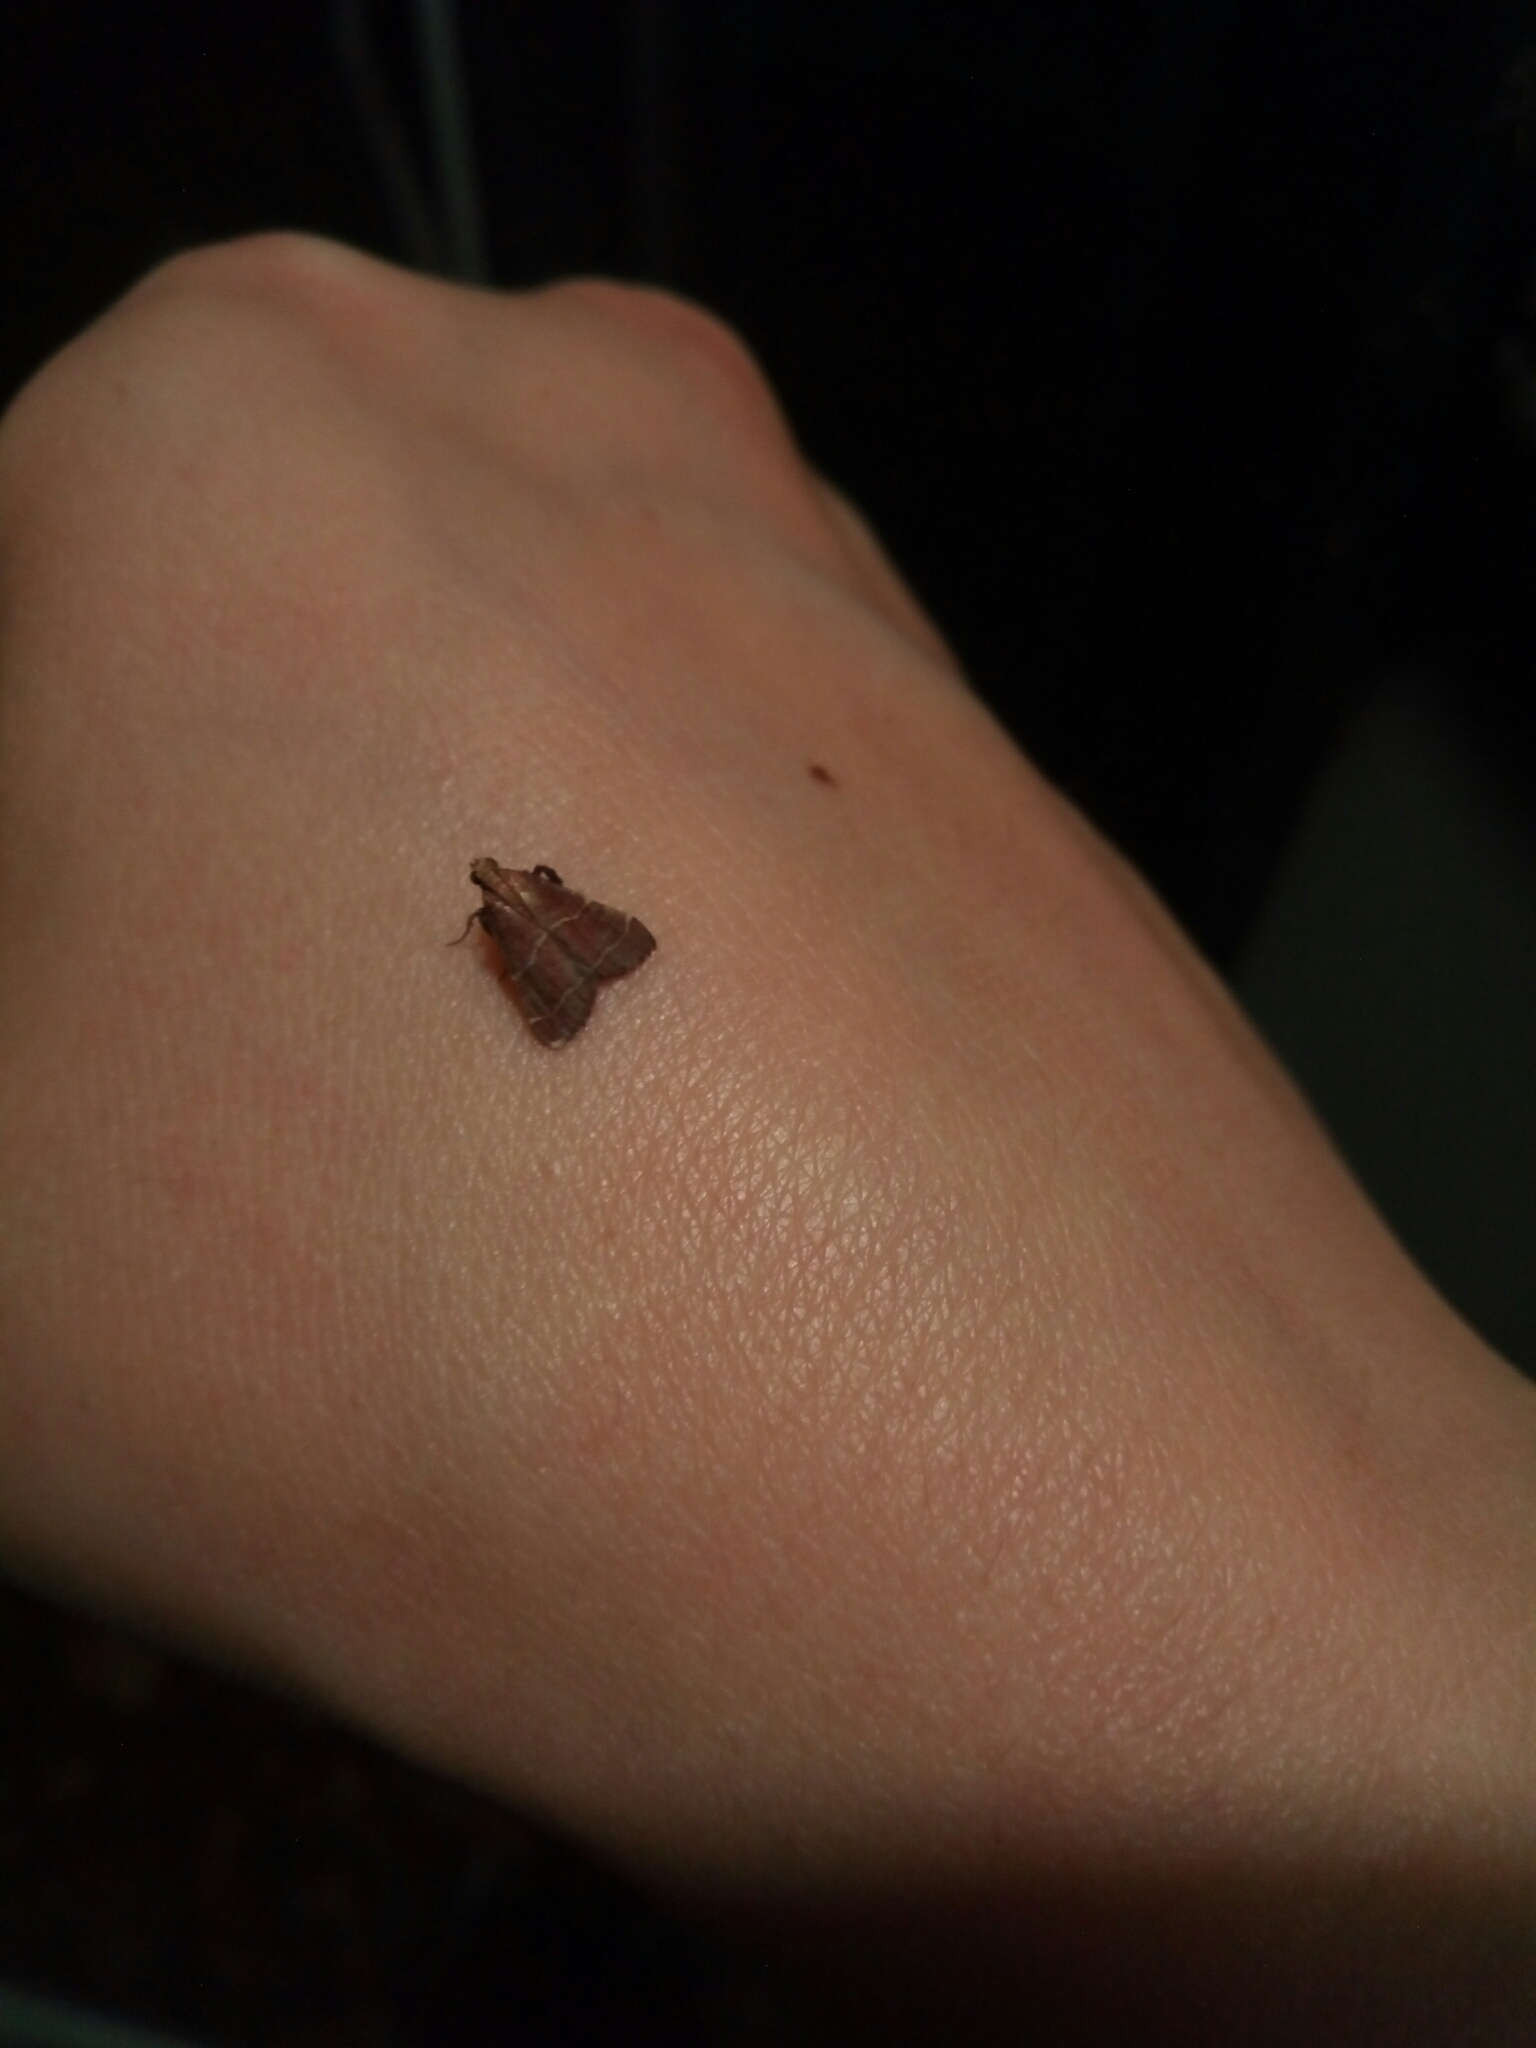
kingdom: Animalia
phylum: Arthropoda
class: Insecta
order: Lepidoptera
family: Pyralidae
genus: Arta
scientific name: Arta statalis
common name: Posturing arta moth
